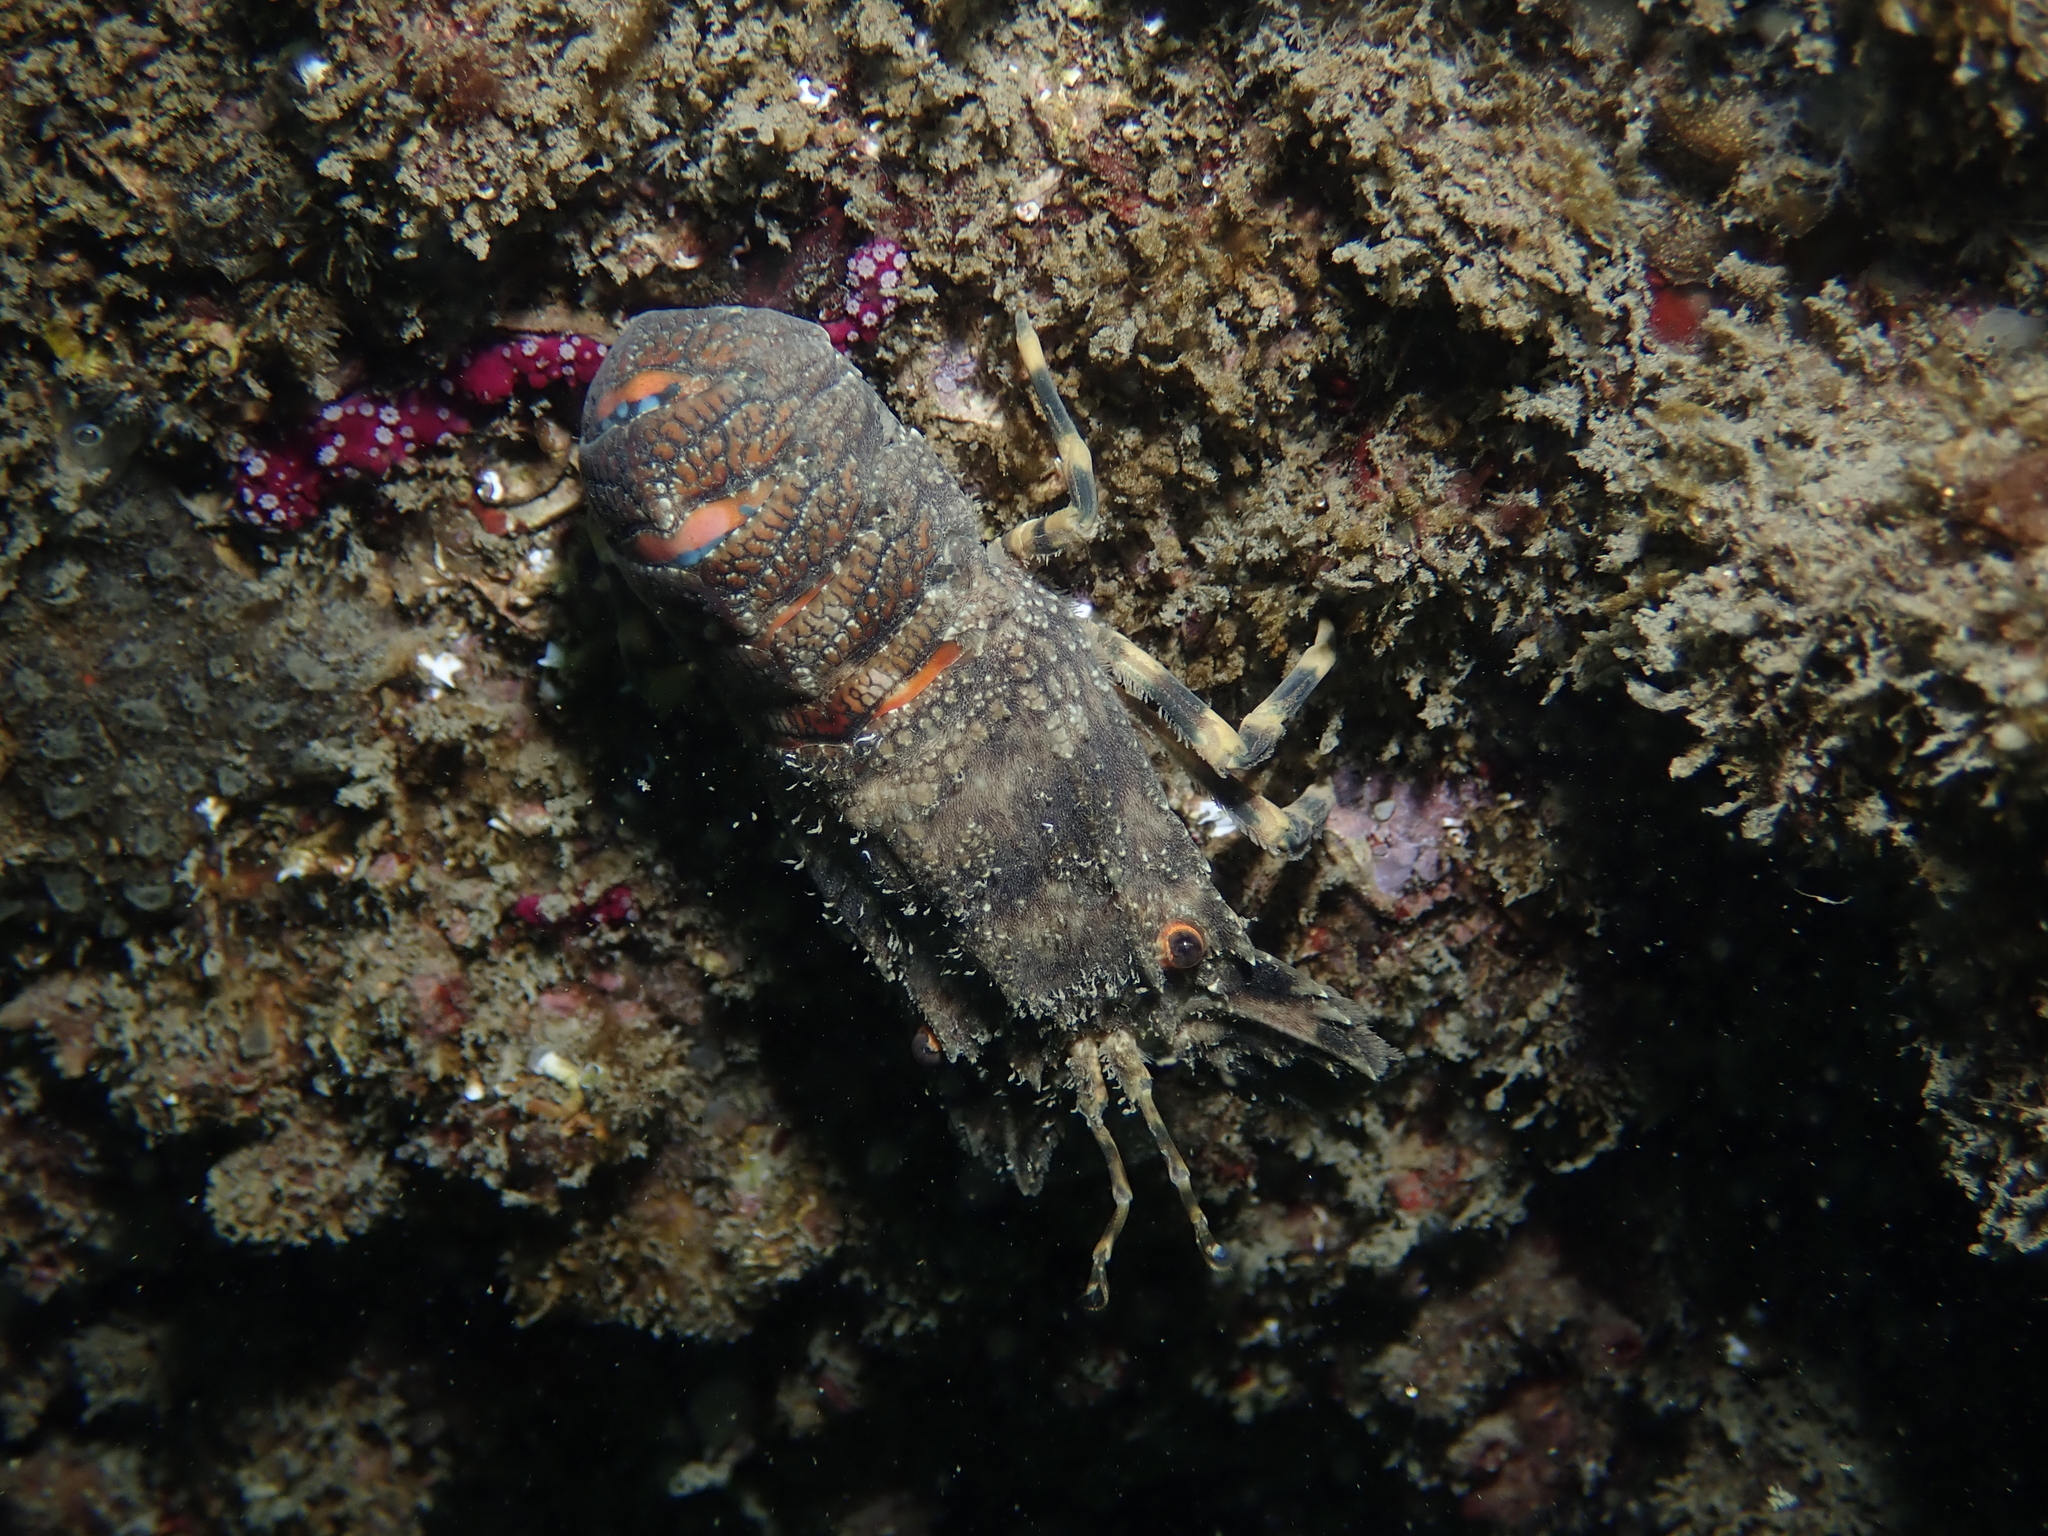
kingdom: Animalia
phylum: Arthropoda
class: Malacostraca
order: Decapoda
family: Scyllaridae
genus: Scyllarus
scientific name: Scyllarus arctus
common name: Small european locust lobster
